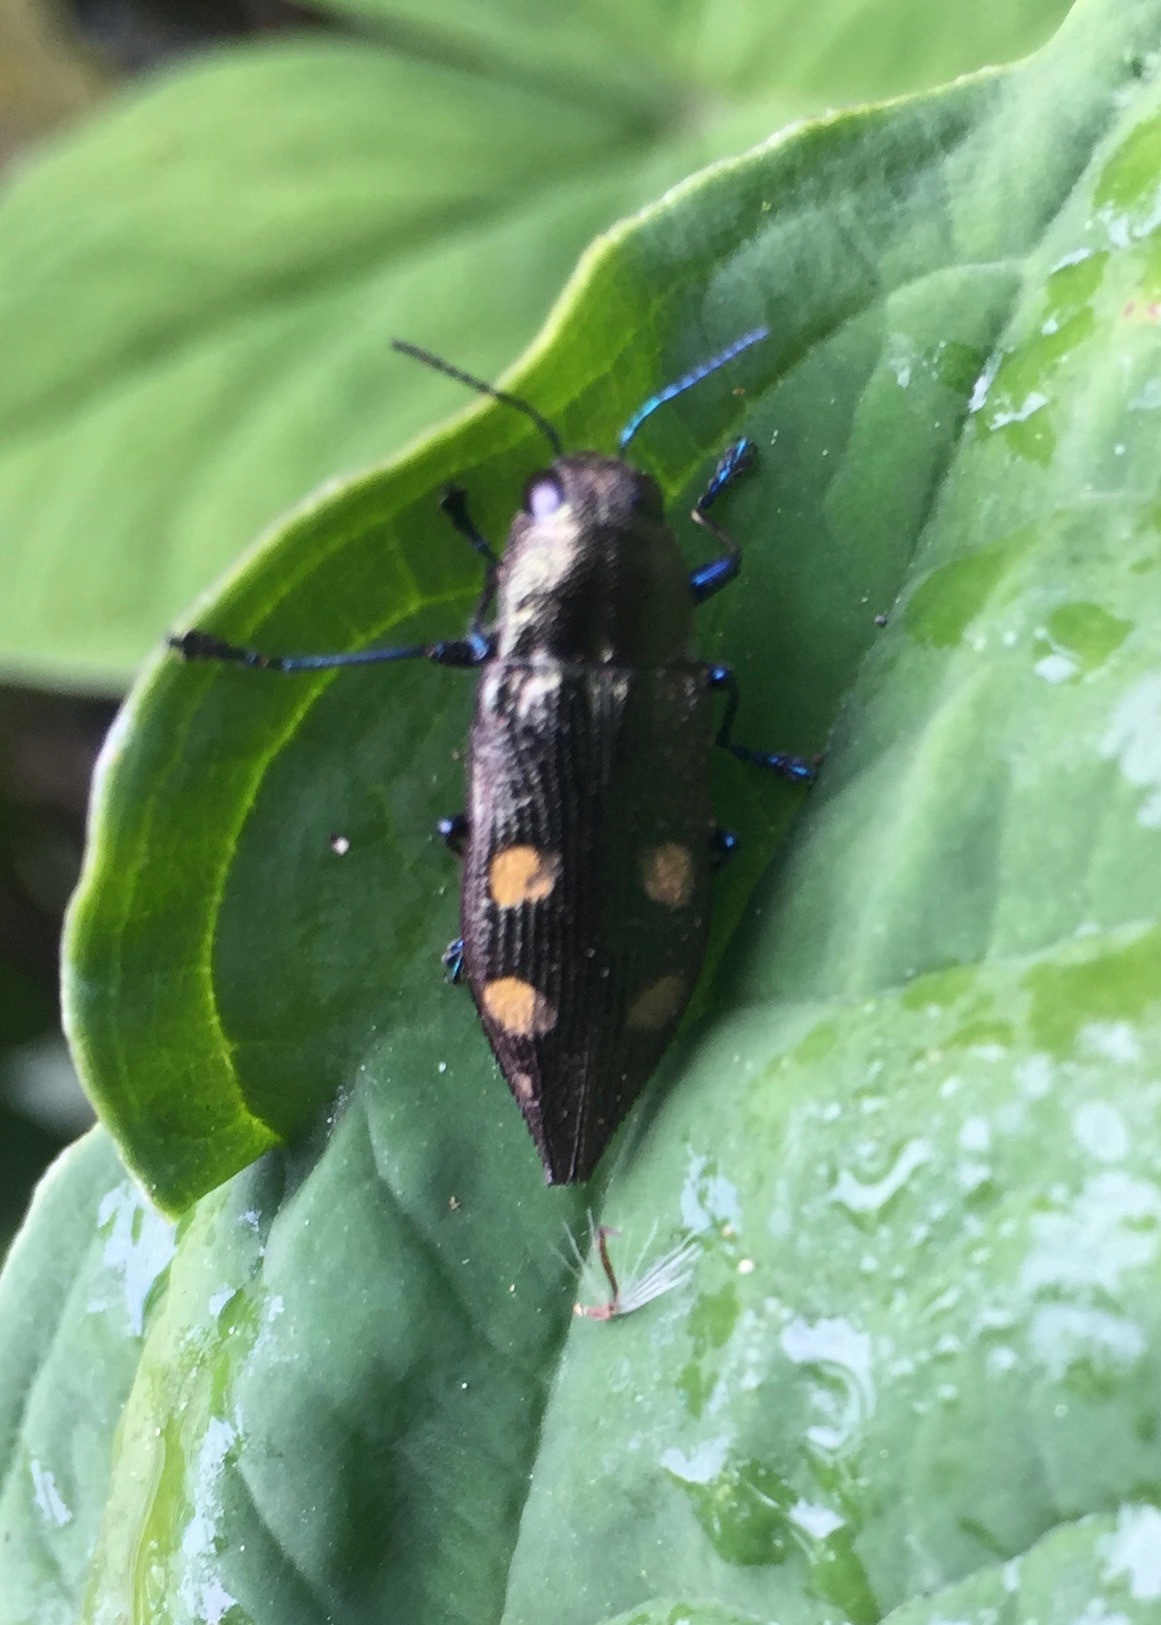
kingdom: Animalia
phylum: Arthropoda
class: Insecta
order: Coleoptera
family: Buprestidae
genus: Halecia
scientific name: Halecia onorei
